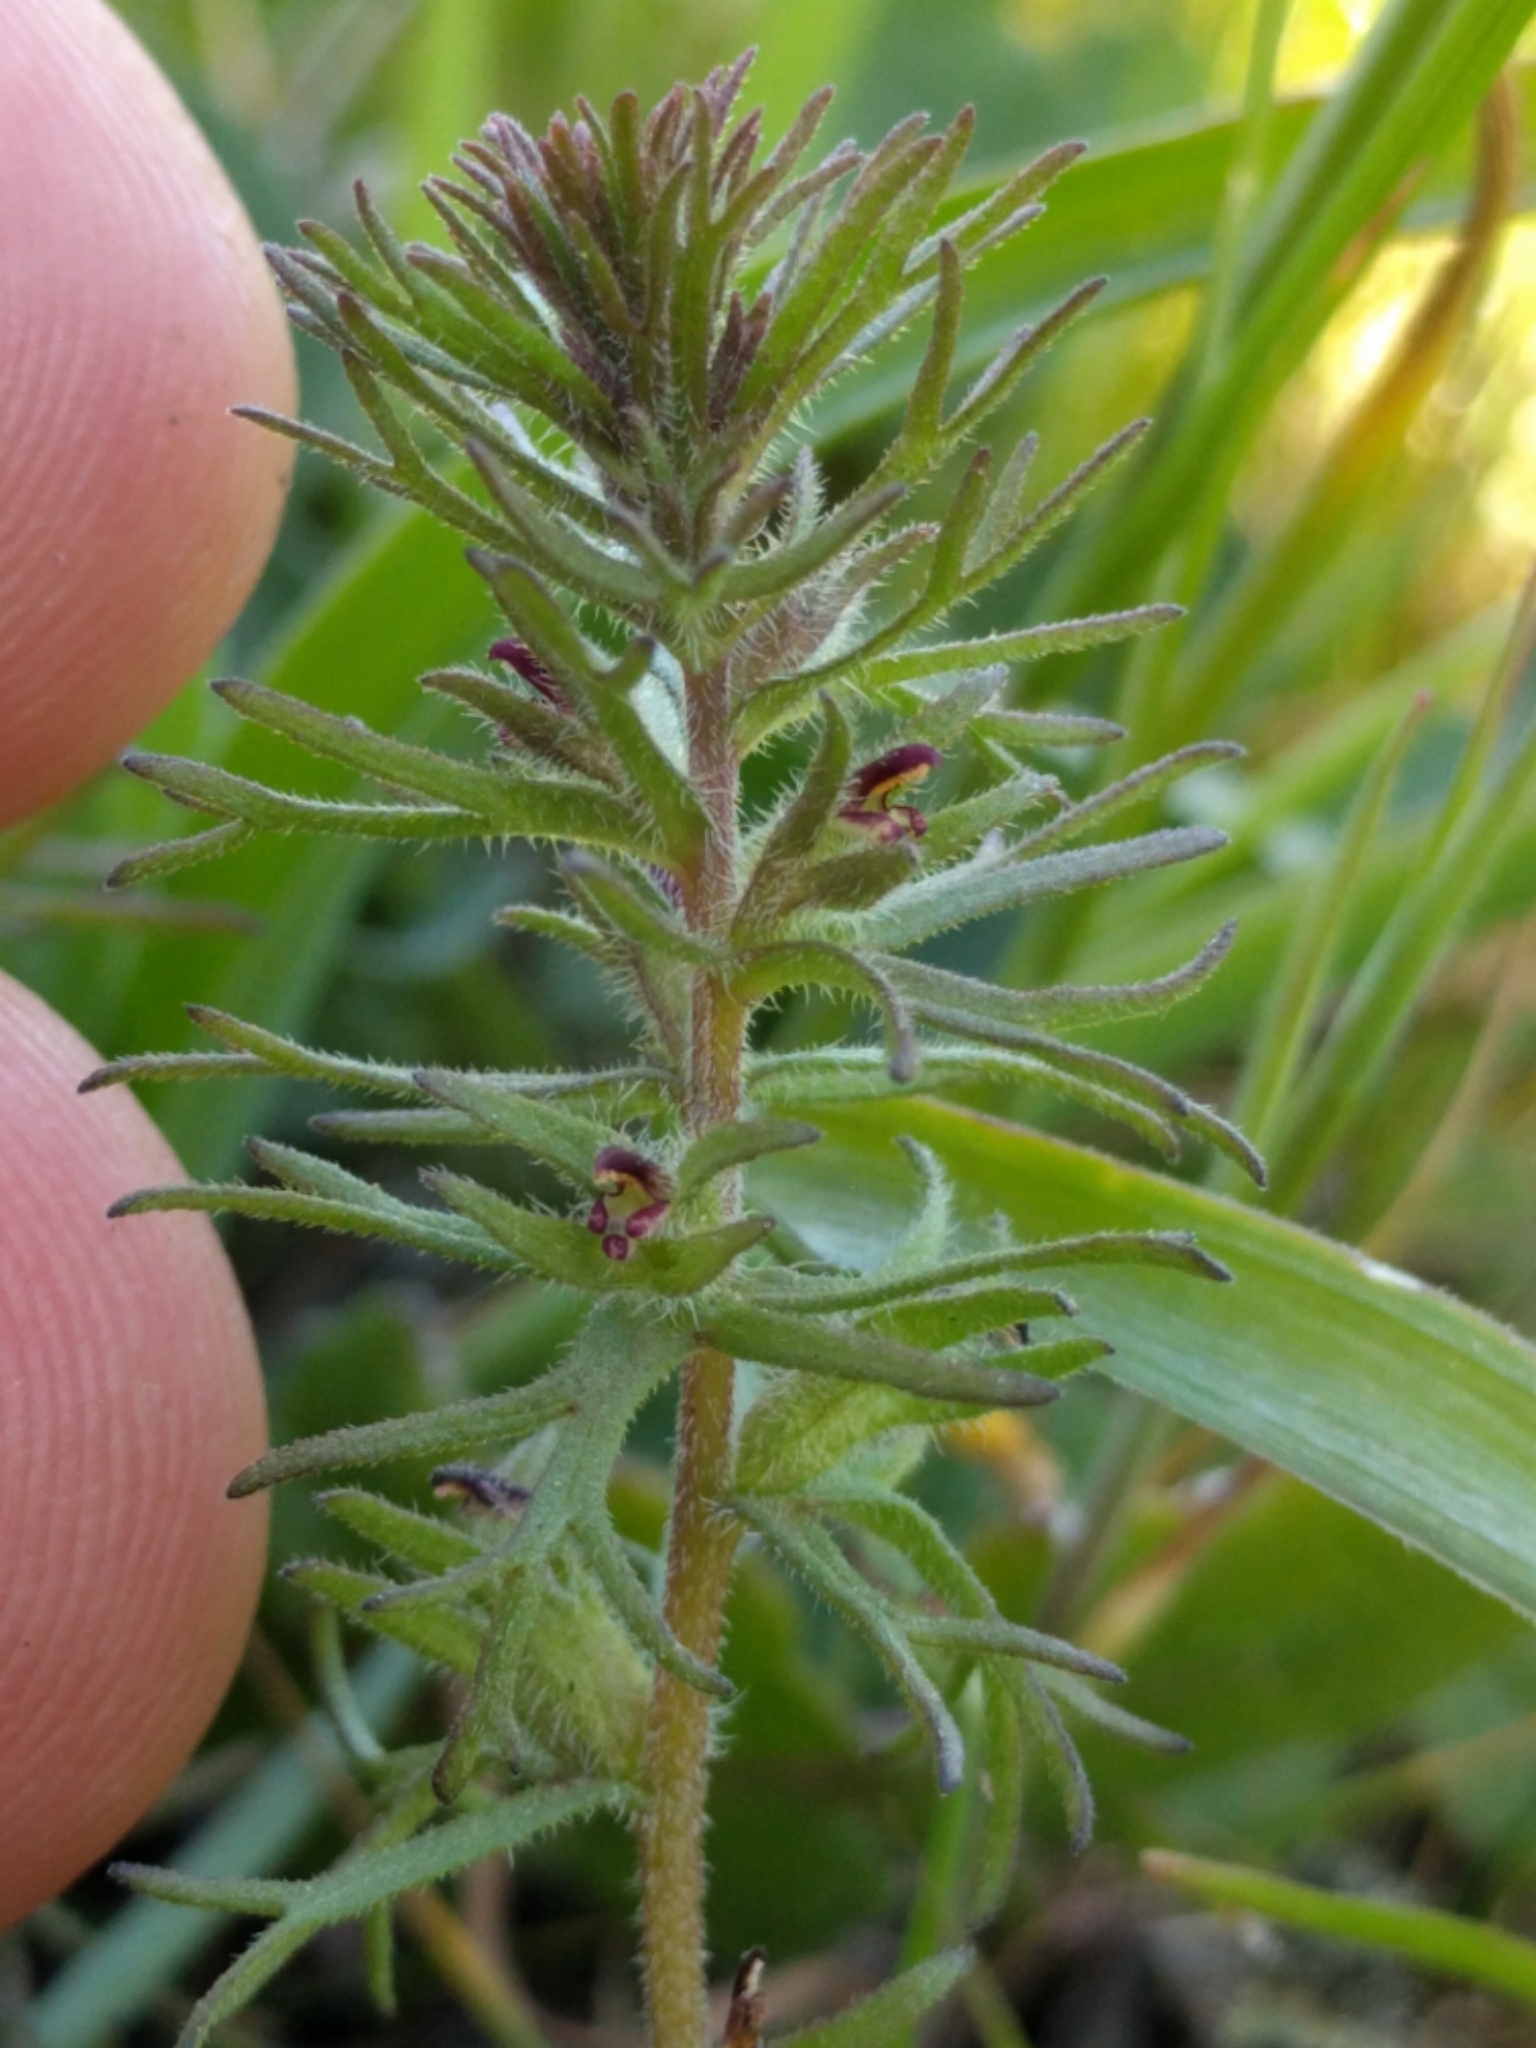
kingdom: Plantae
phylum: Tracheophyta
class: Magnoliopsida
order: Lamiales
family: Orobanchaceae
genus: Triphysaria
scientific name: Triphysaria pusilla
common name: Dwarf false owl-clover
